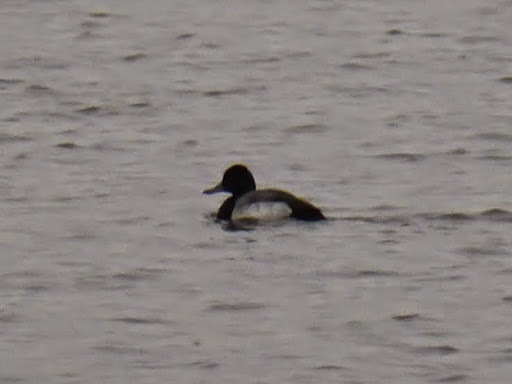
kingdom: Animalia
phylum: Chordata
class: Aves
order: Anseriformes
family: Anatidae
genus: Aythya
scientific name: Aythya affinis
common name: Lesser scaup
